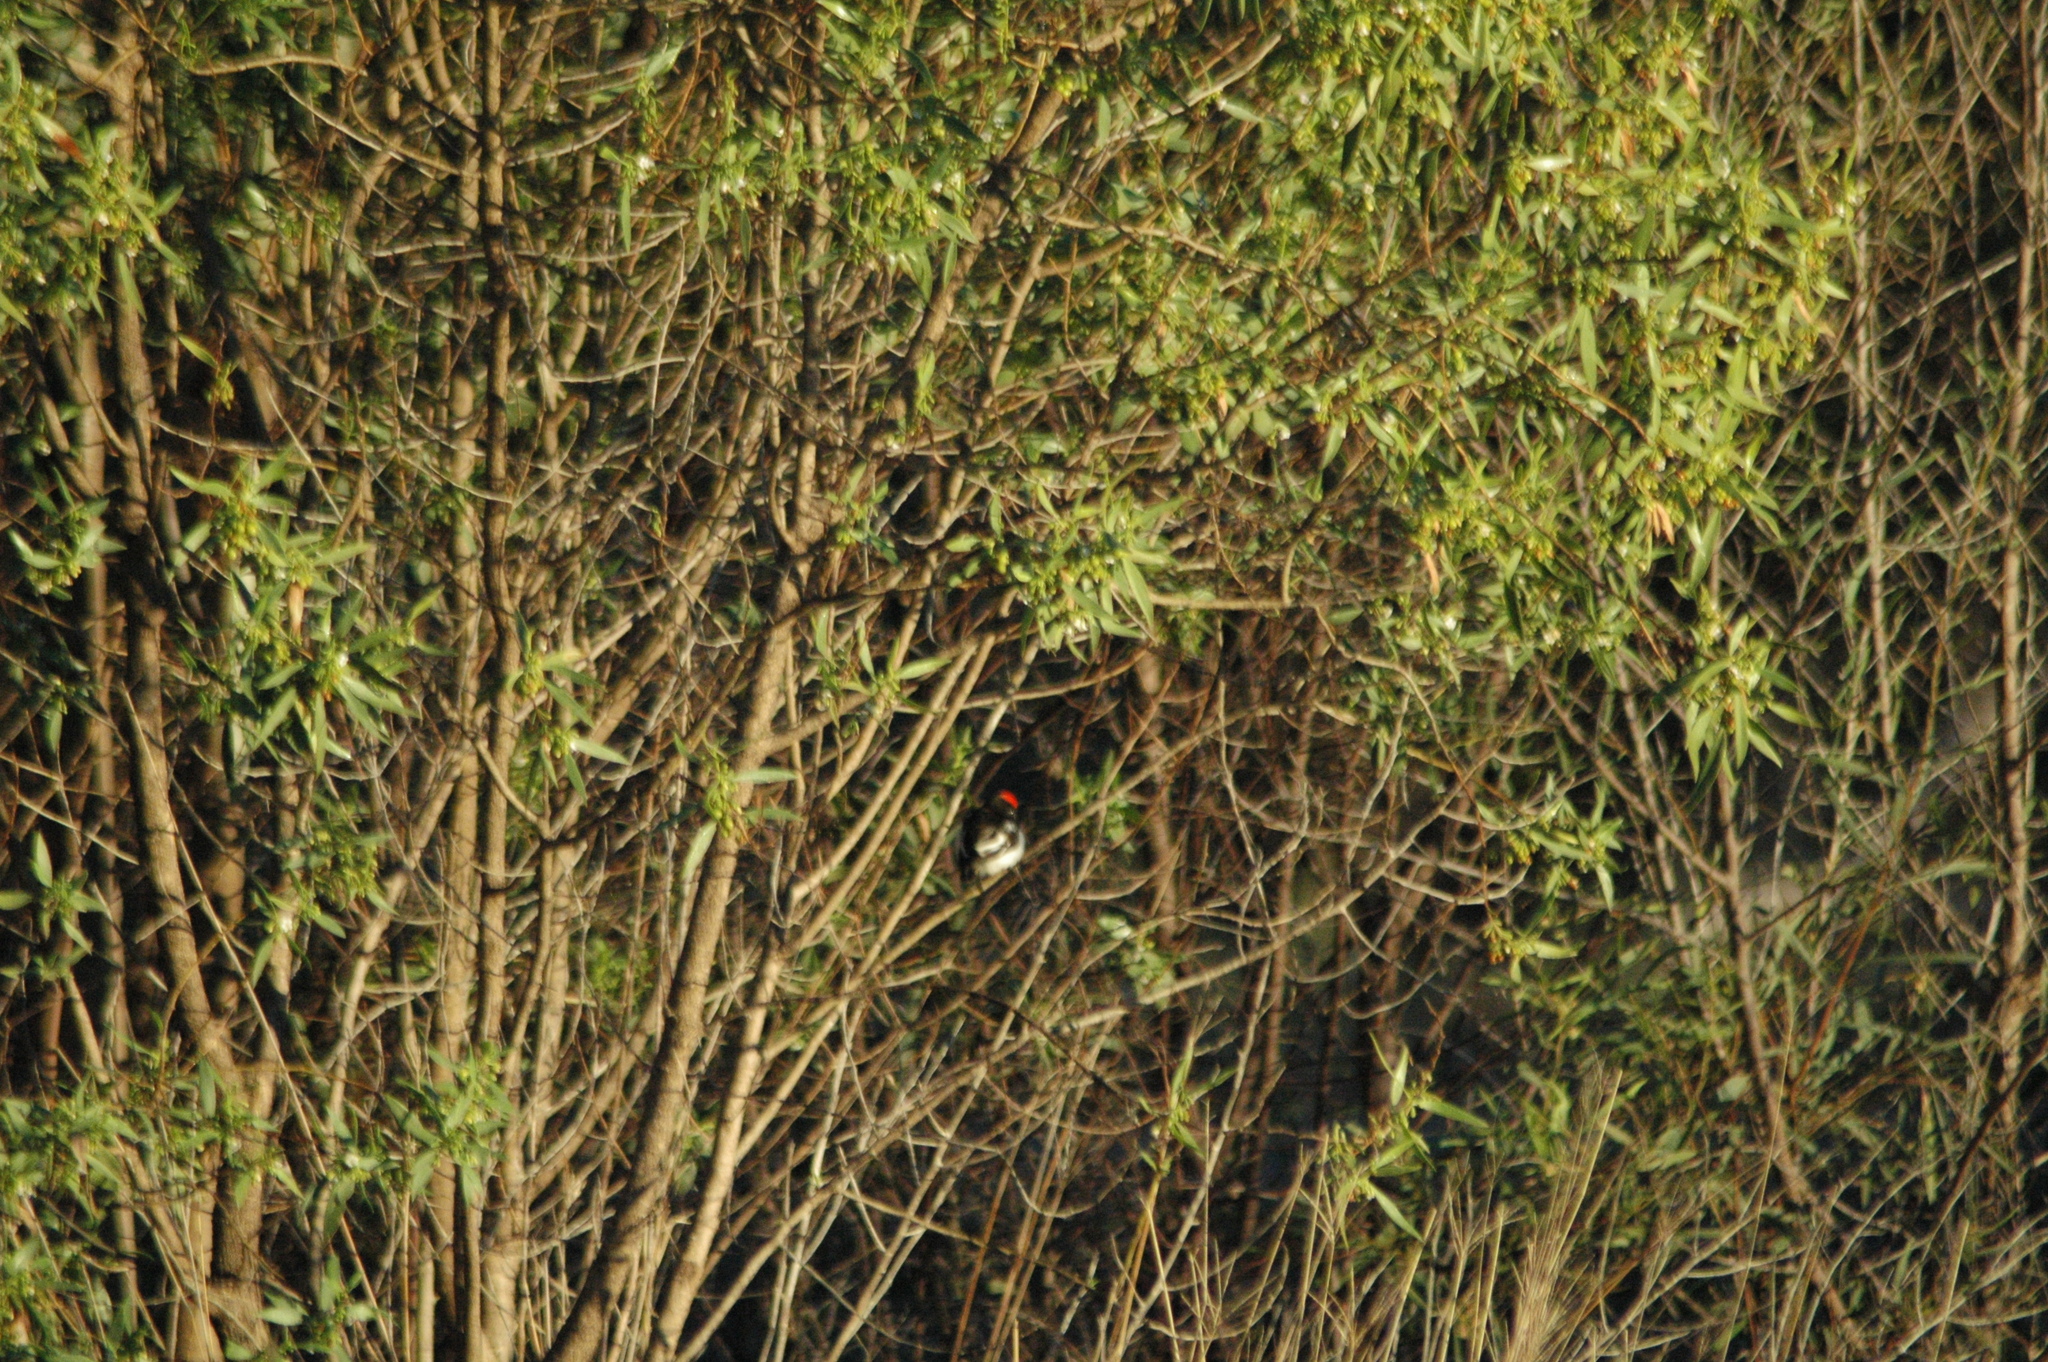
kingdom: Animalia
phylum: Chordata
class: Aves
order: Passeriformes
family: Petroicidae
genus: Petroica
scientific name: Petroica goodenovii
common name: Red-capped robin
